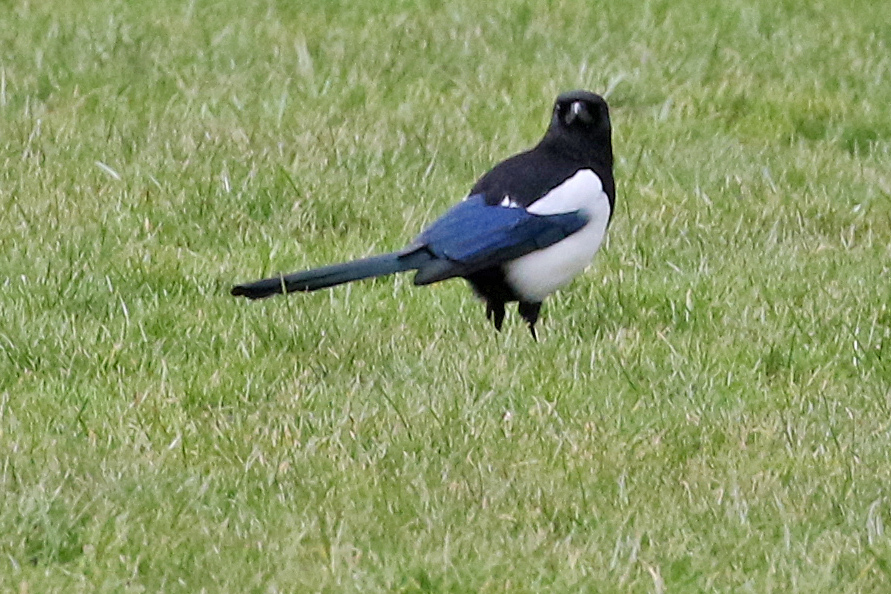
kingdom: Animalia
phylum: Chordata
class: Aves
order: Passeriformes
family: Corvidae
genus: Pica
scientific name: Pica pica
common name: Eurasian magpie
